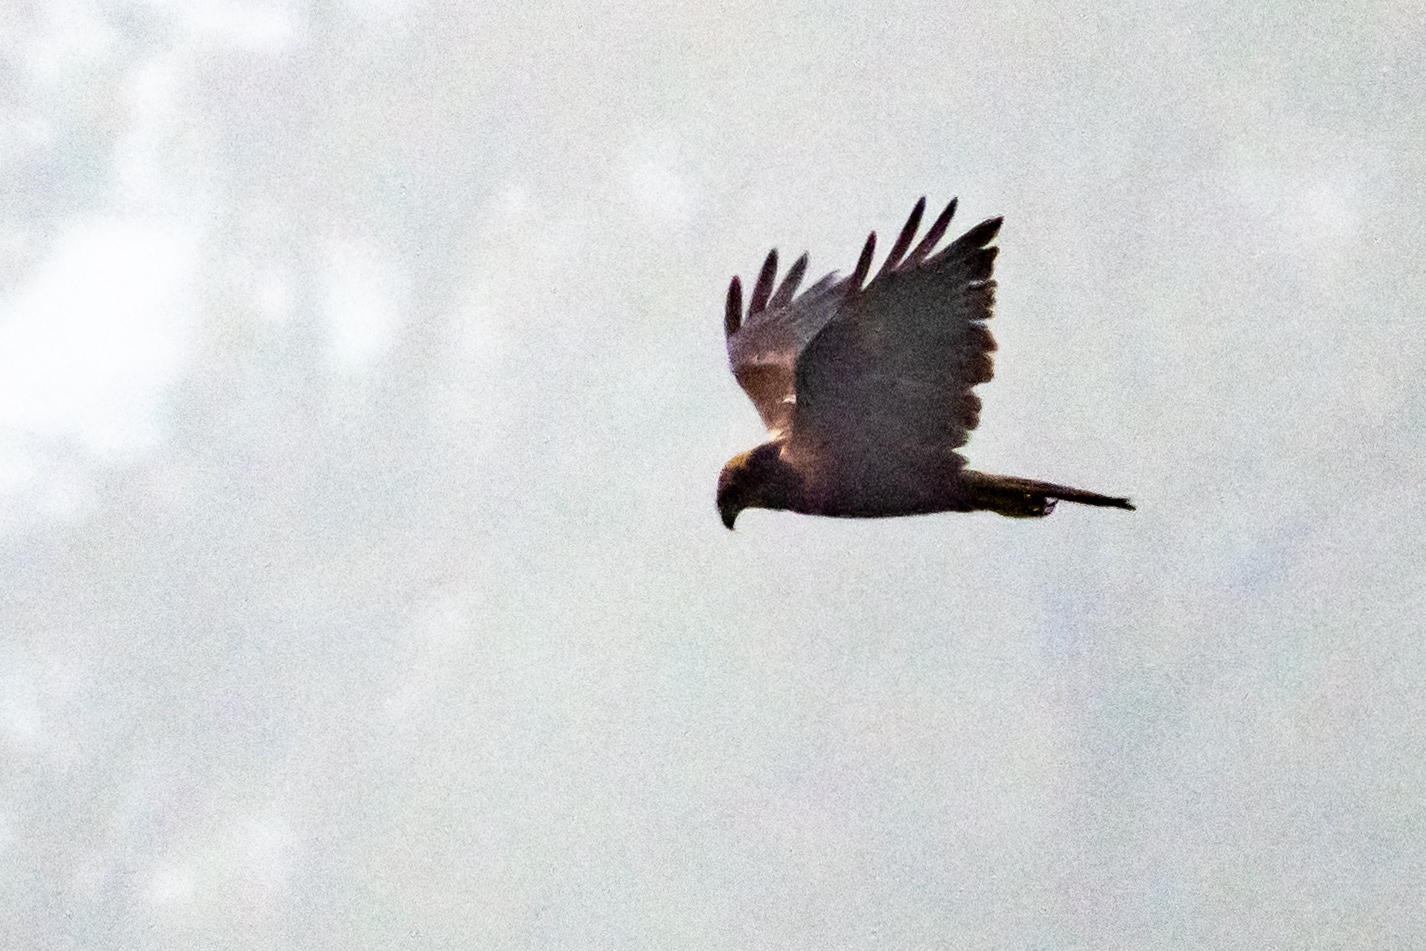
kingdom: Animalia
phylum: Chordata
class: Aves
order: Accipitriformes
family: Accipitridae
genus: Circus
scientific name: Circus aeruginosus
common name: Western marsh harrier
